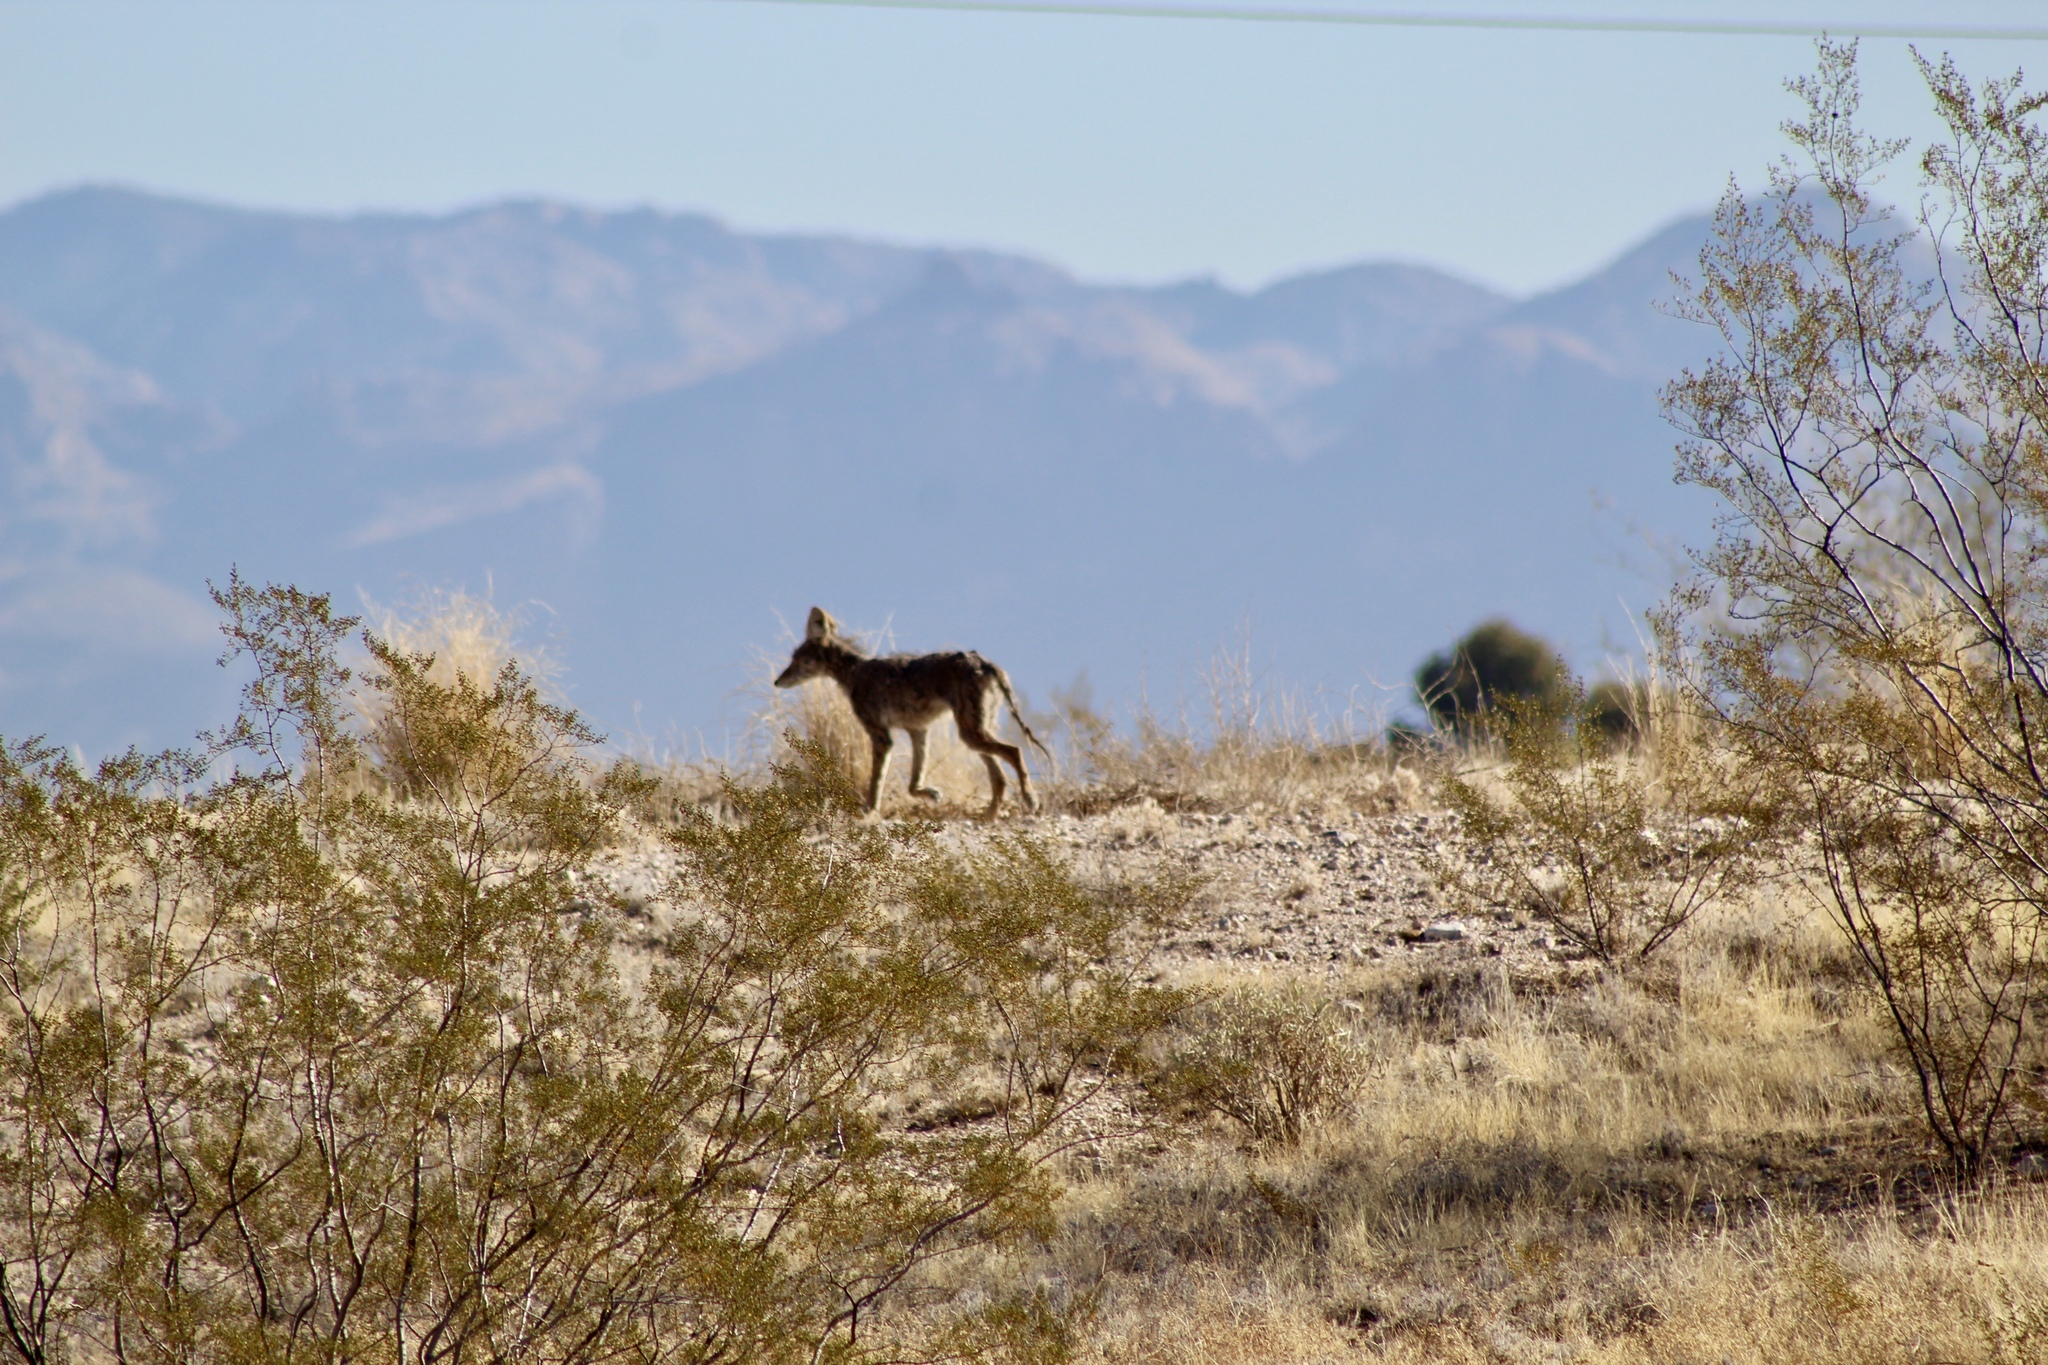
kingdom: Animalia
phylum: Chordata
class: Mammalia
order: Carnivora
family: Canidae
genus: Canis
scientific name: Canis latrans
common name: Coyote
